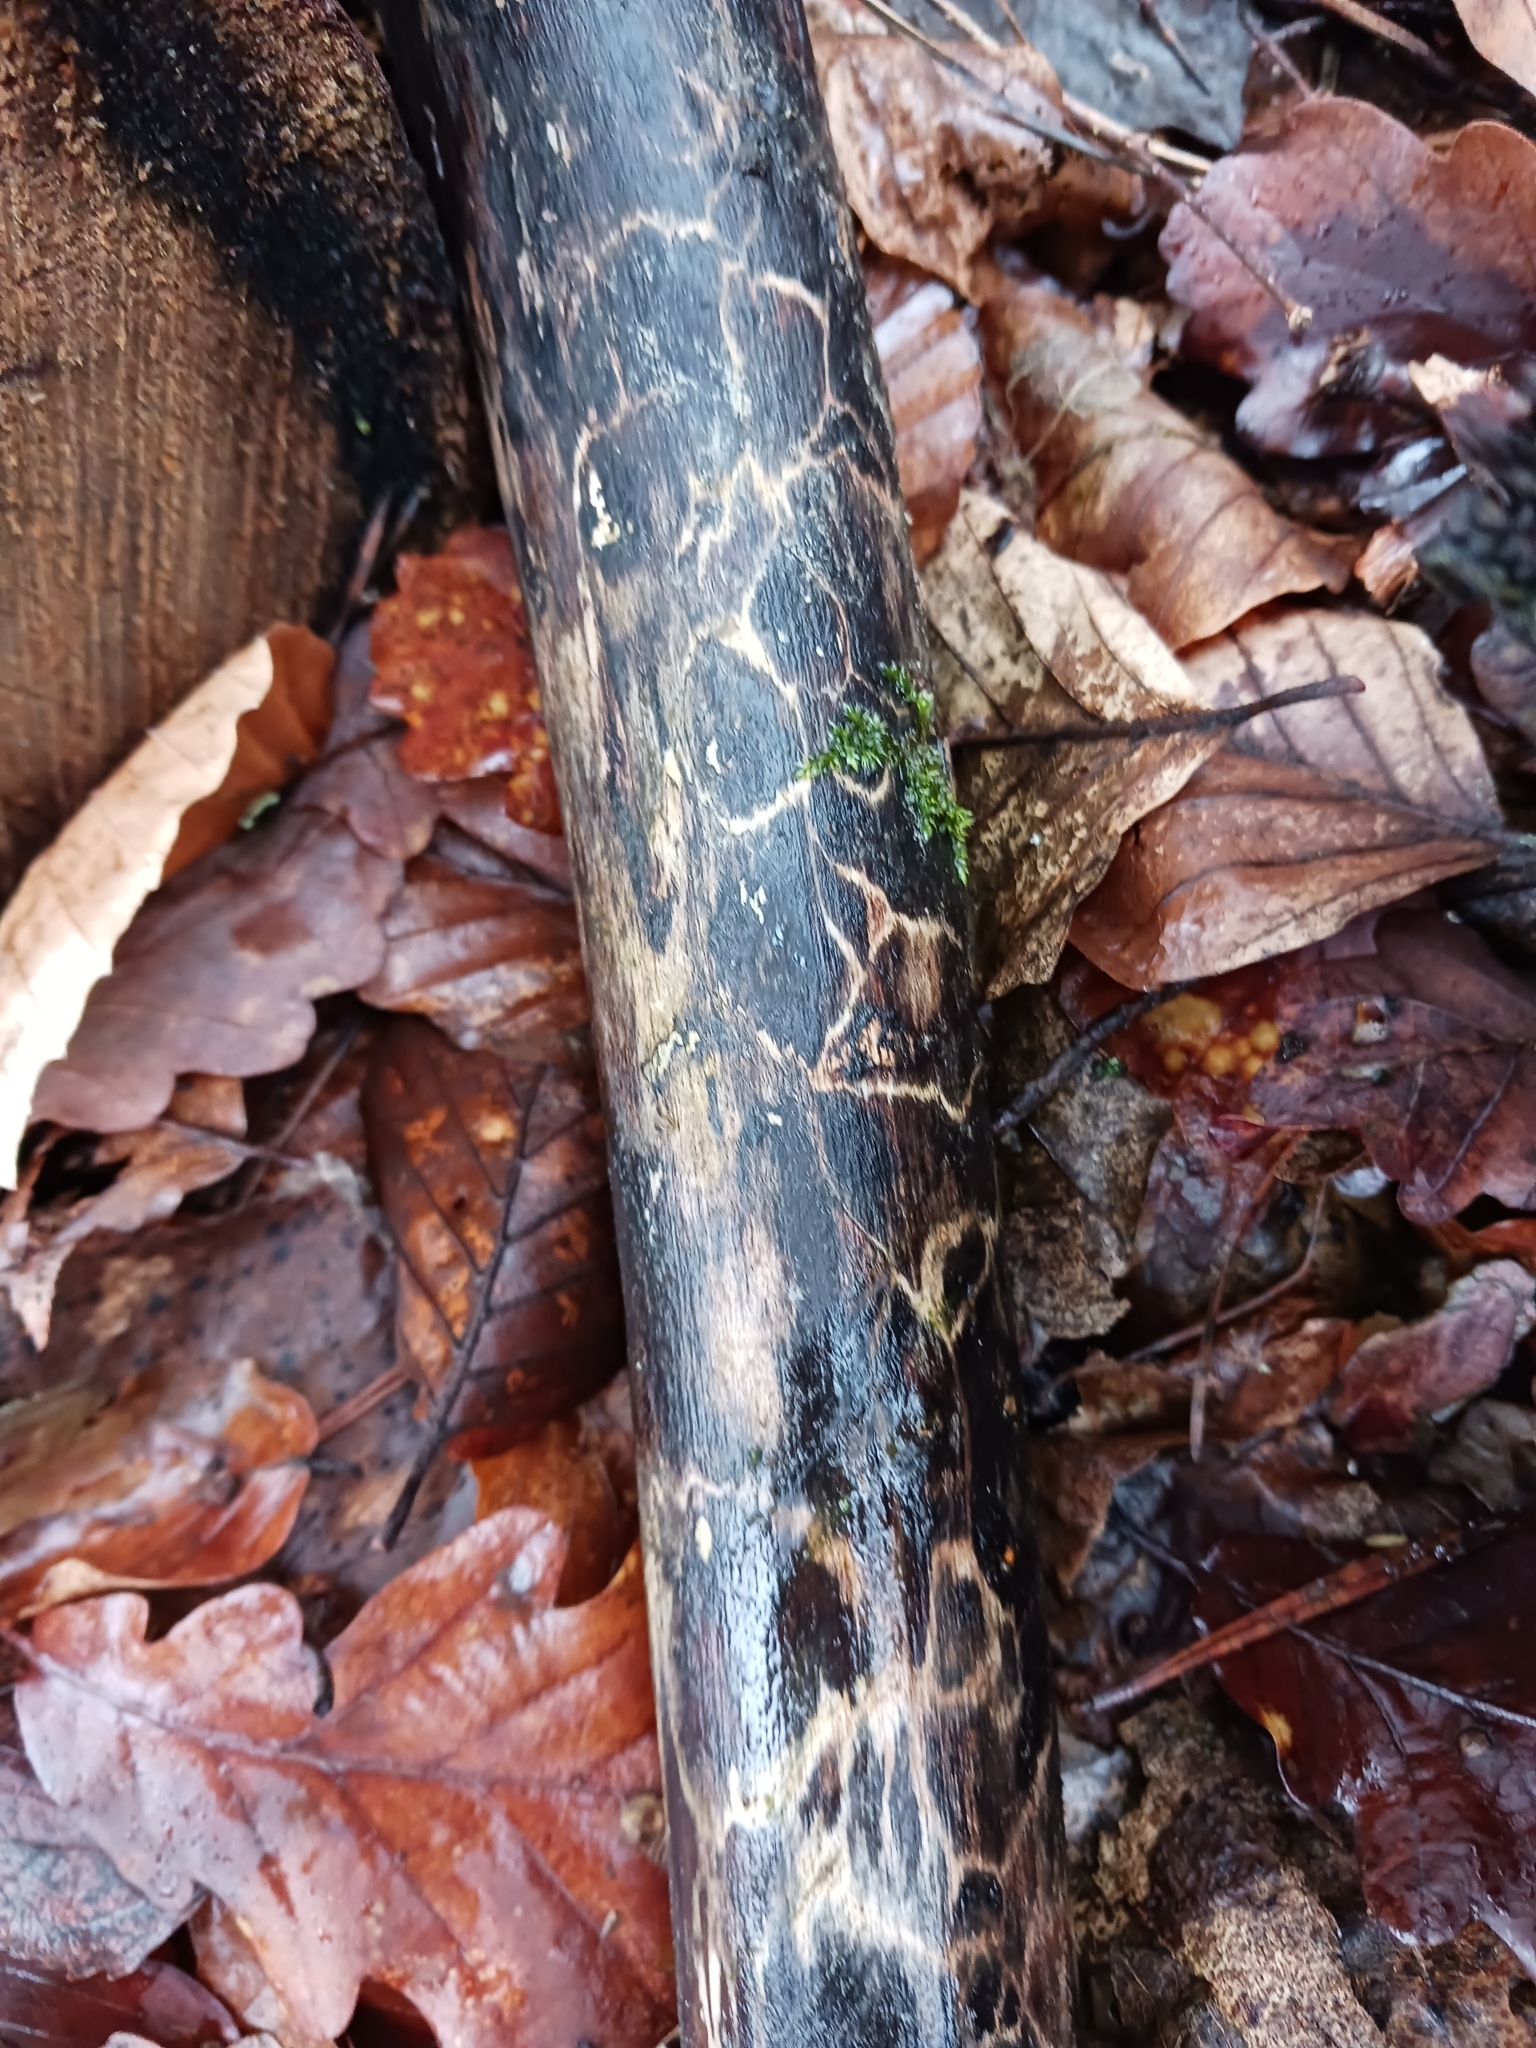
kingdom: Fungi
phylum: Ascomycota
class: Sordariomycetes
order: Xylariales
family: Xylariaceae
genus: Xylaria
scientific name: Xylaria longipes
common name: Dead moll's fingers
